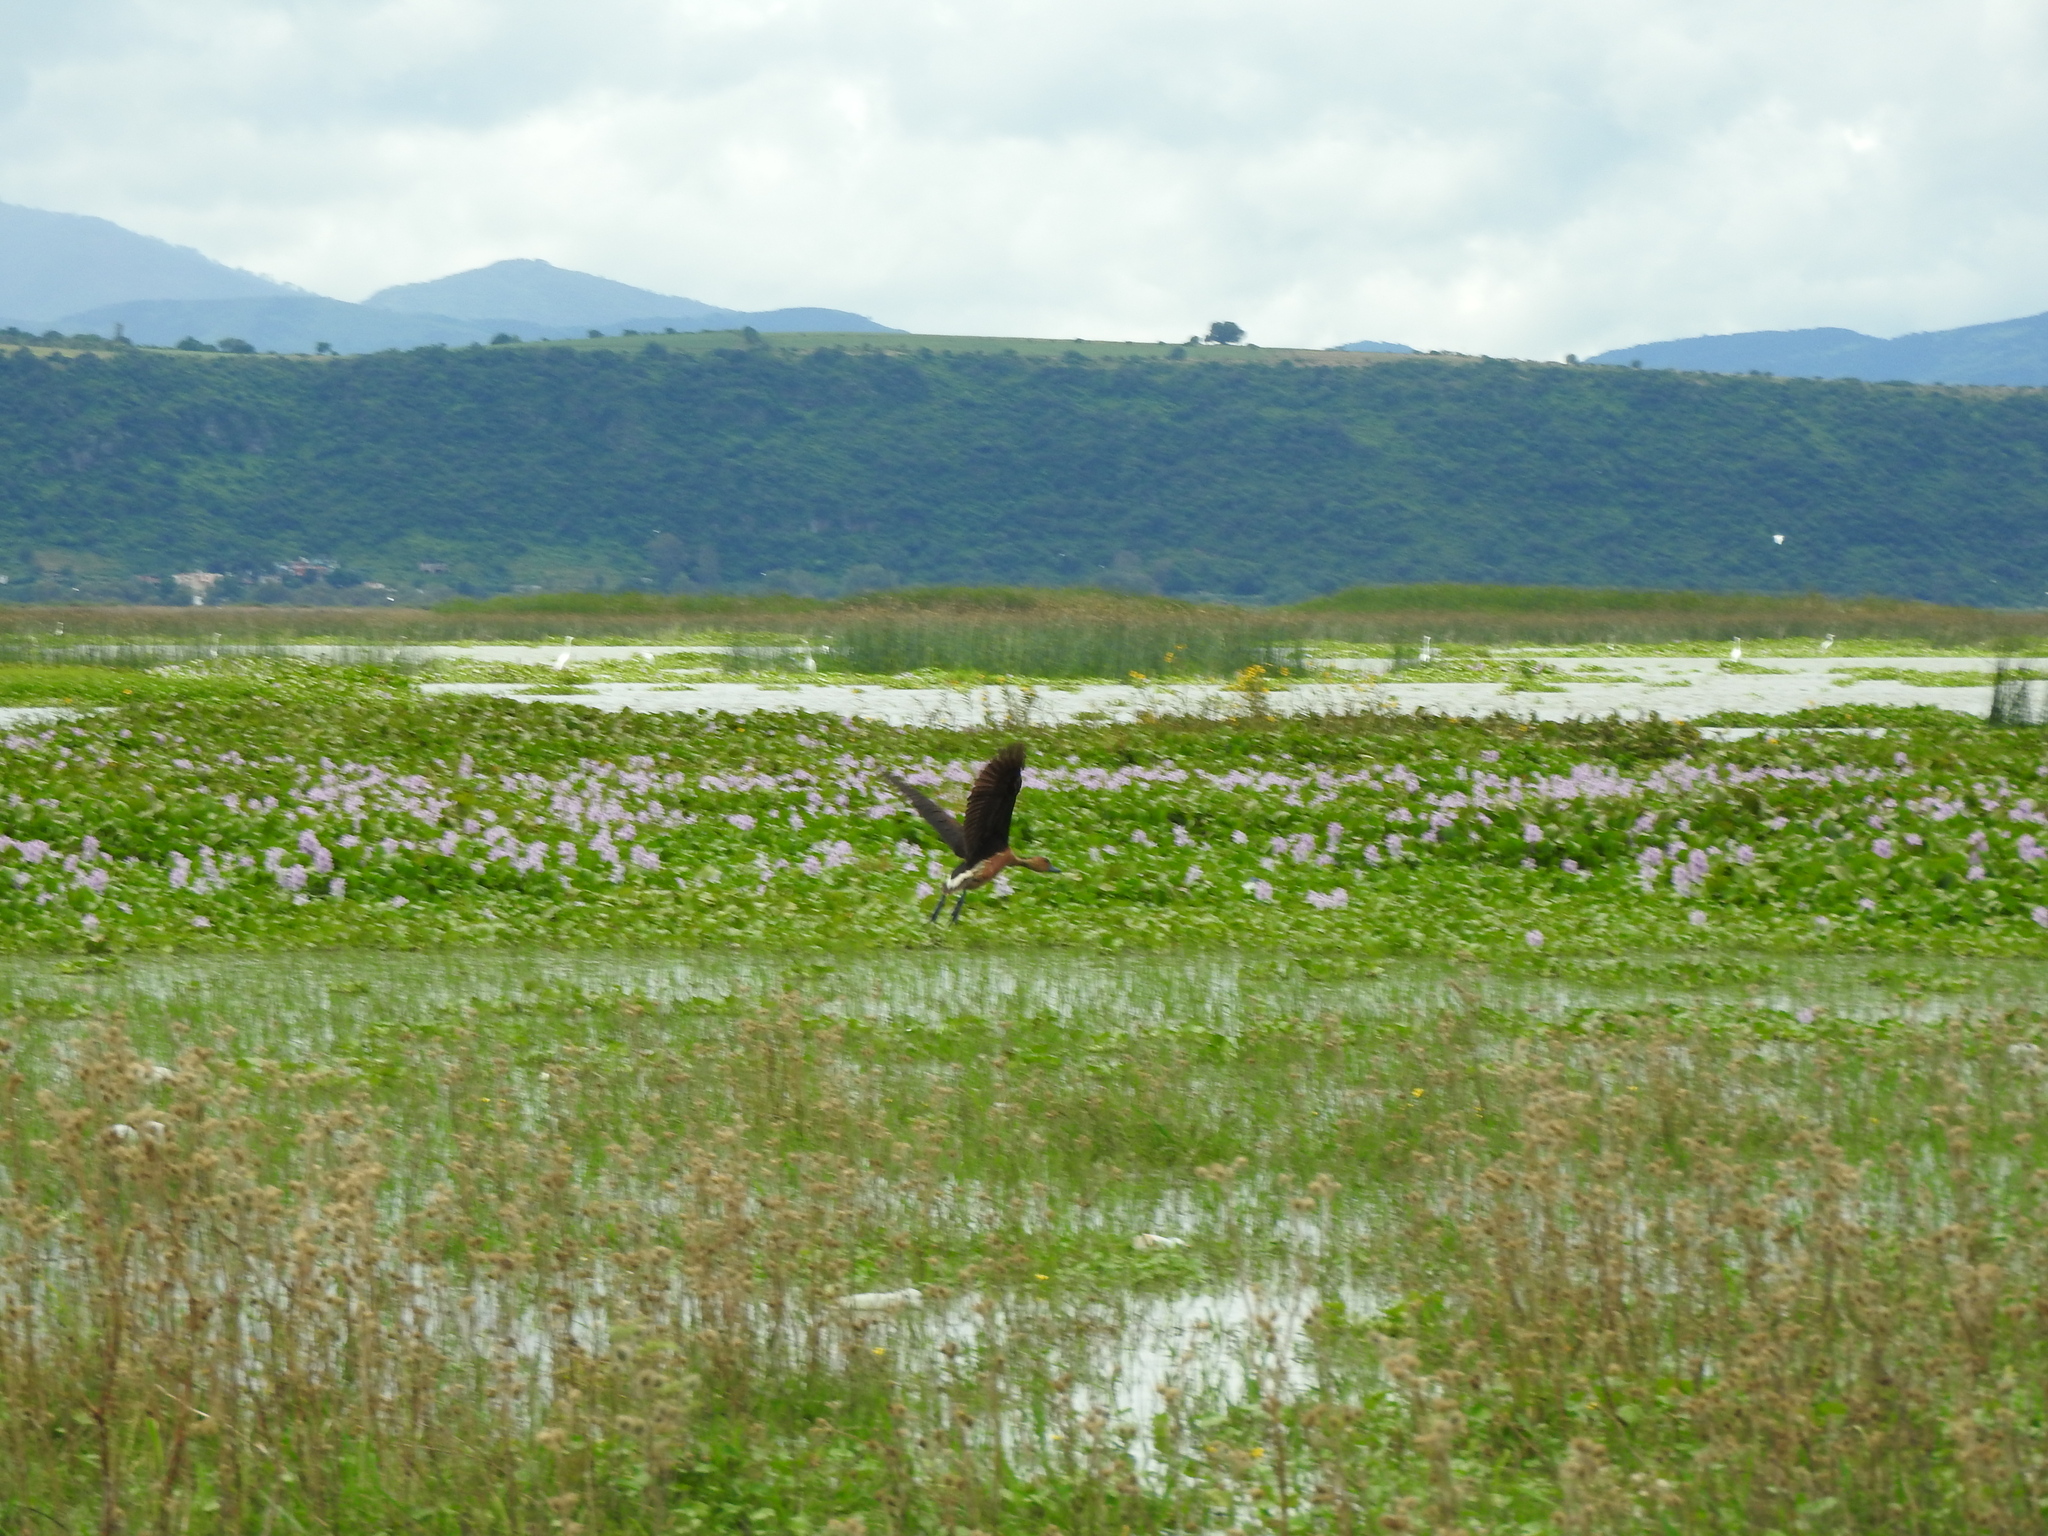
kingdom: Animalia
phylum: Chordata
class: Aves
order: Anseriformes
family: Anatidae
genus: Dendrocygna
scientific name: Dendrocygna bicolor
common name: Fulvous whistling duck
